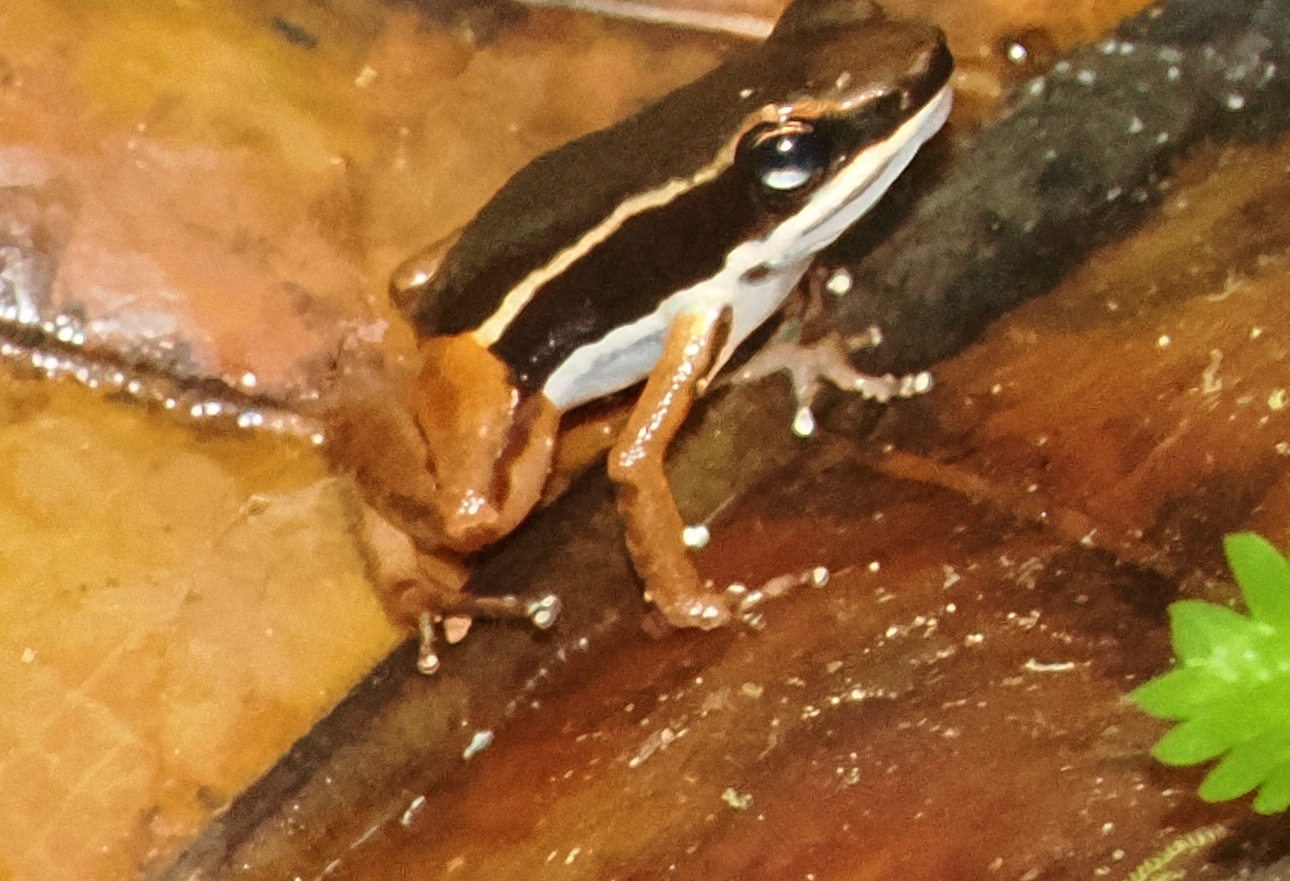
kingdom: Animalia
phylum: Chordata
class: Amphibia
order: Anura
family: Aromobatidae
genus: Allobates
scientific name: Allobates talamancae
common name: Talamanca rocket frog
